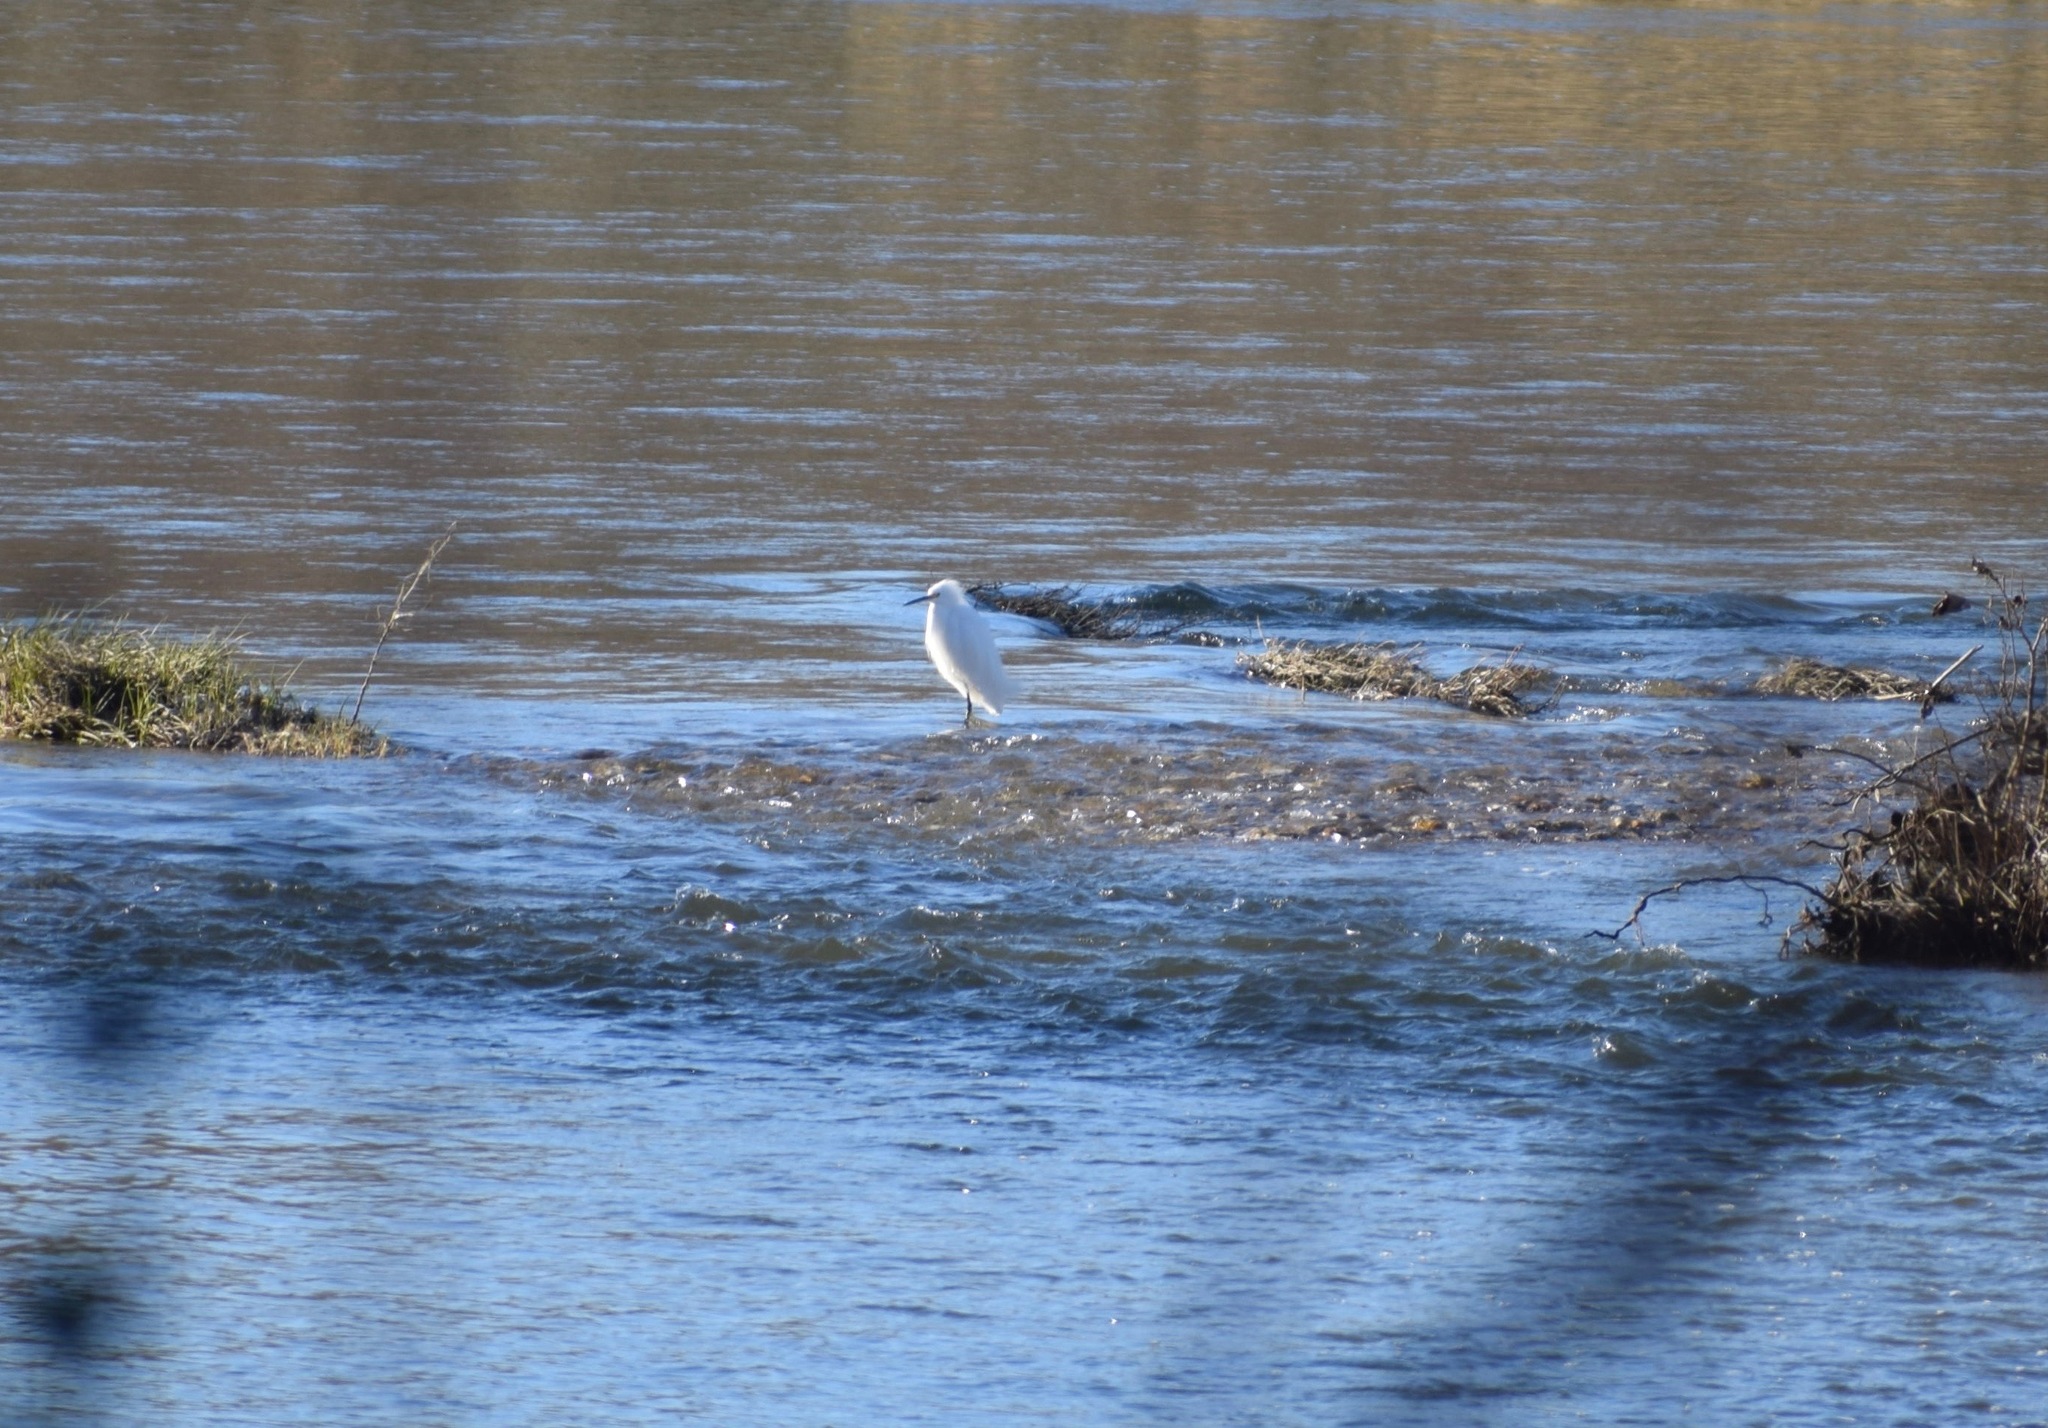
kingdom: Animalia
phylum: Chordata
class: Aves
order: Pelecaniformes
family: Ardeidae
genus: Egretta
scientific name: Egretta thula
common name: Snowy egret
